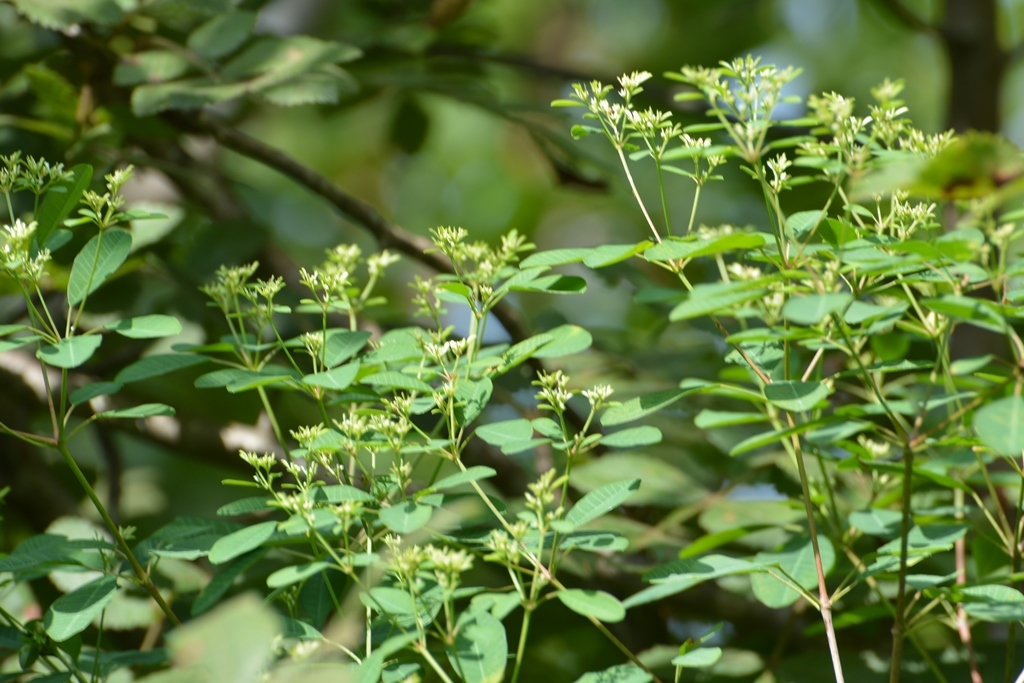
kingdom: Plantae
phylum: Tracheophyta
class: Magnoliopsida
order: Malpighiales
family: Euphorbiaceae
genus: Euphorbia
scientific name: Euphorbia leucocephala
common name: Pascuita
